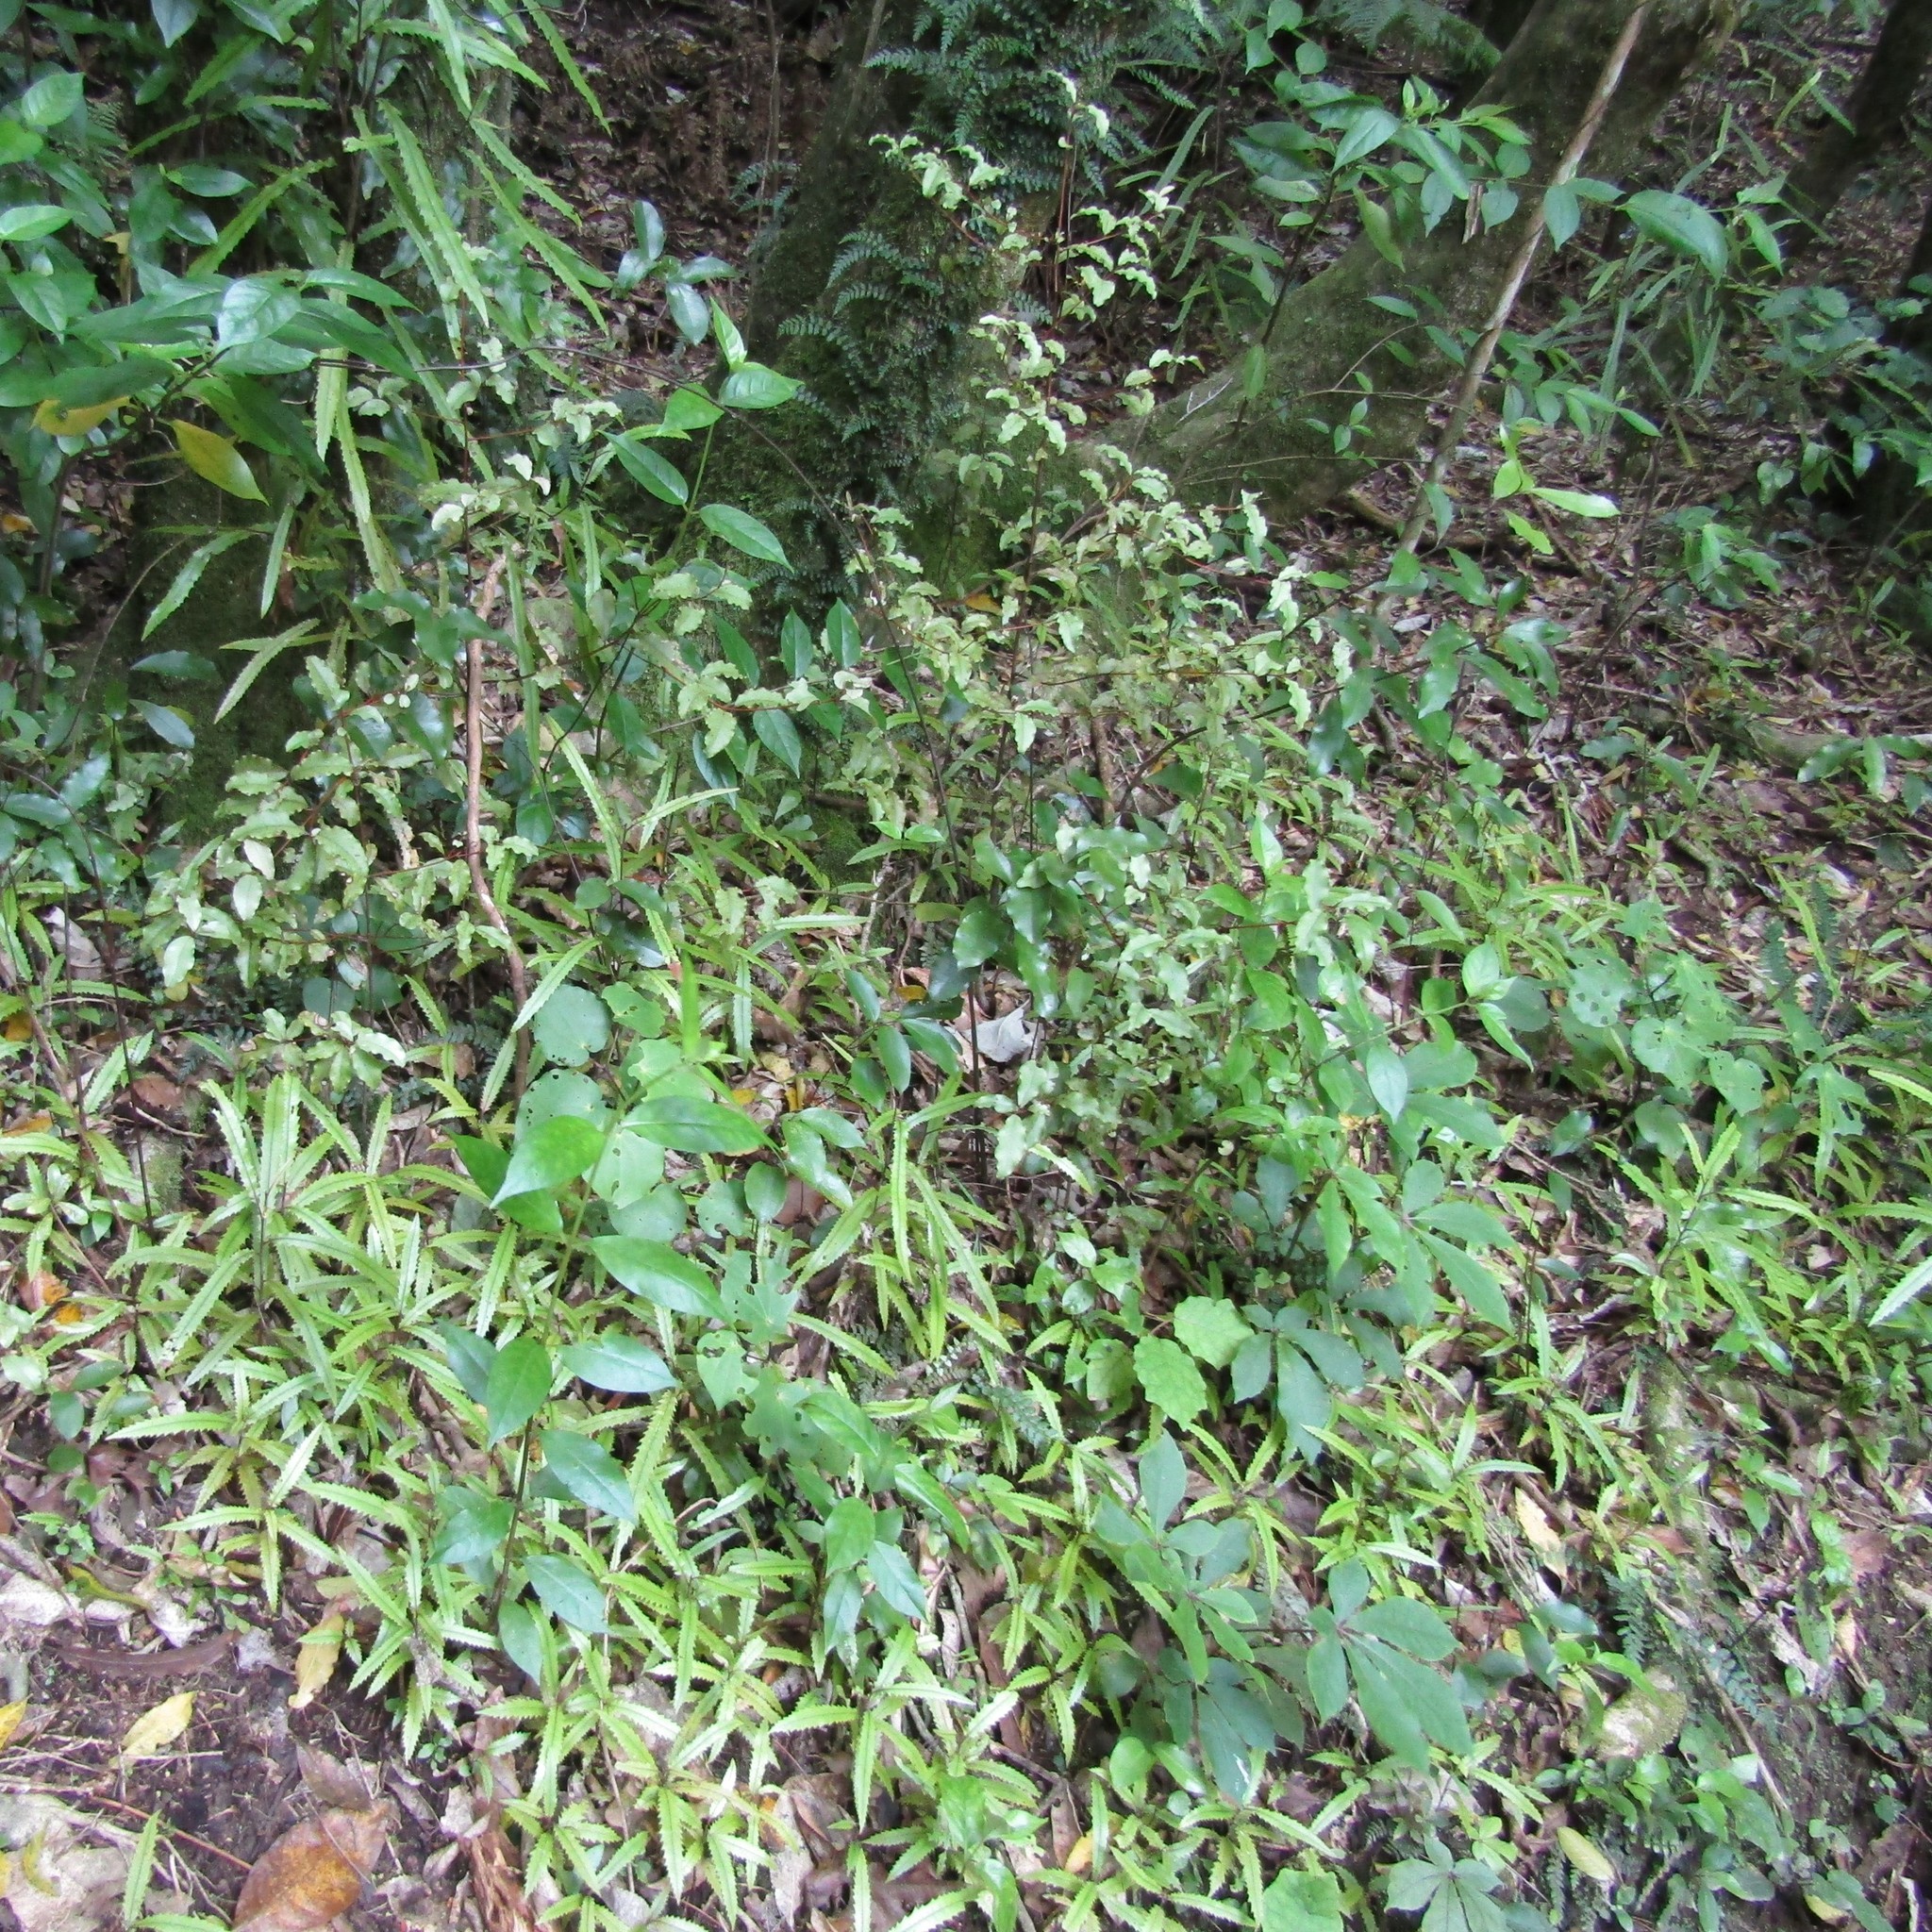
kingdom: Plantae
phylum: Tracheophyta
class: Magnoliopsida
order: Proteales
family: Proteaceae
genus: Knightia
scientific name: Knightia excelsa
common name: New zealand-honeysuckle
